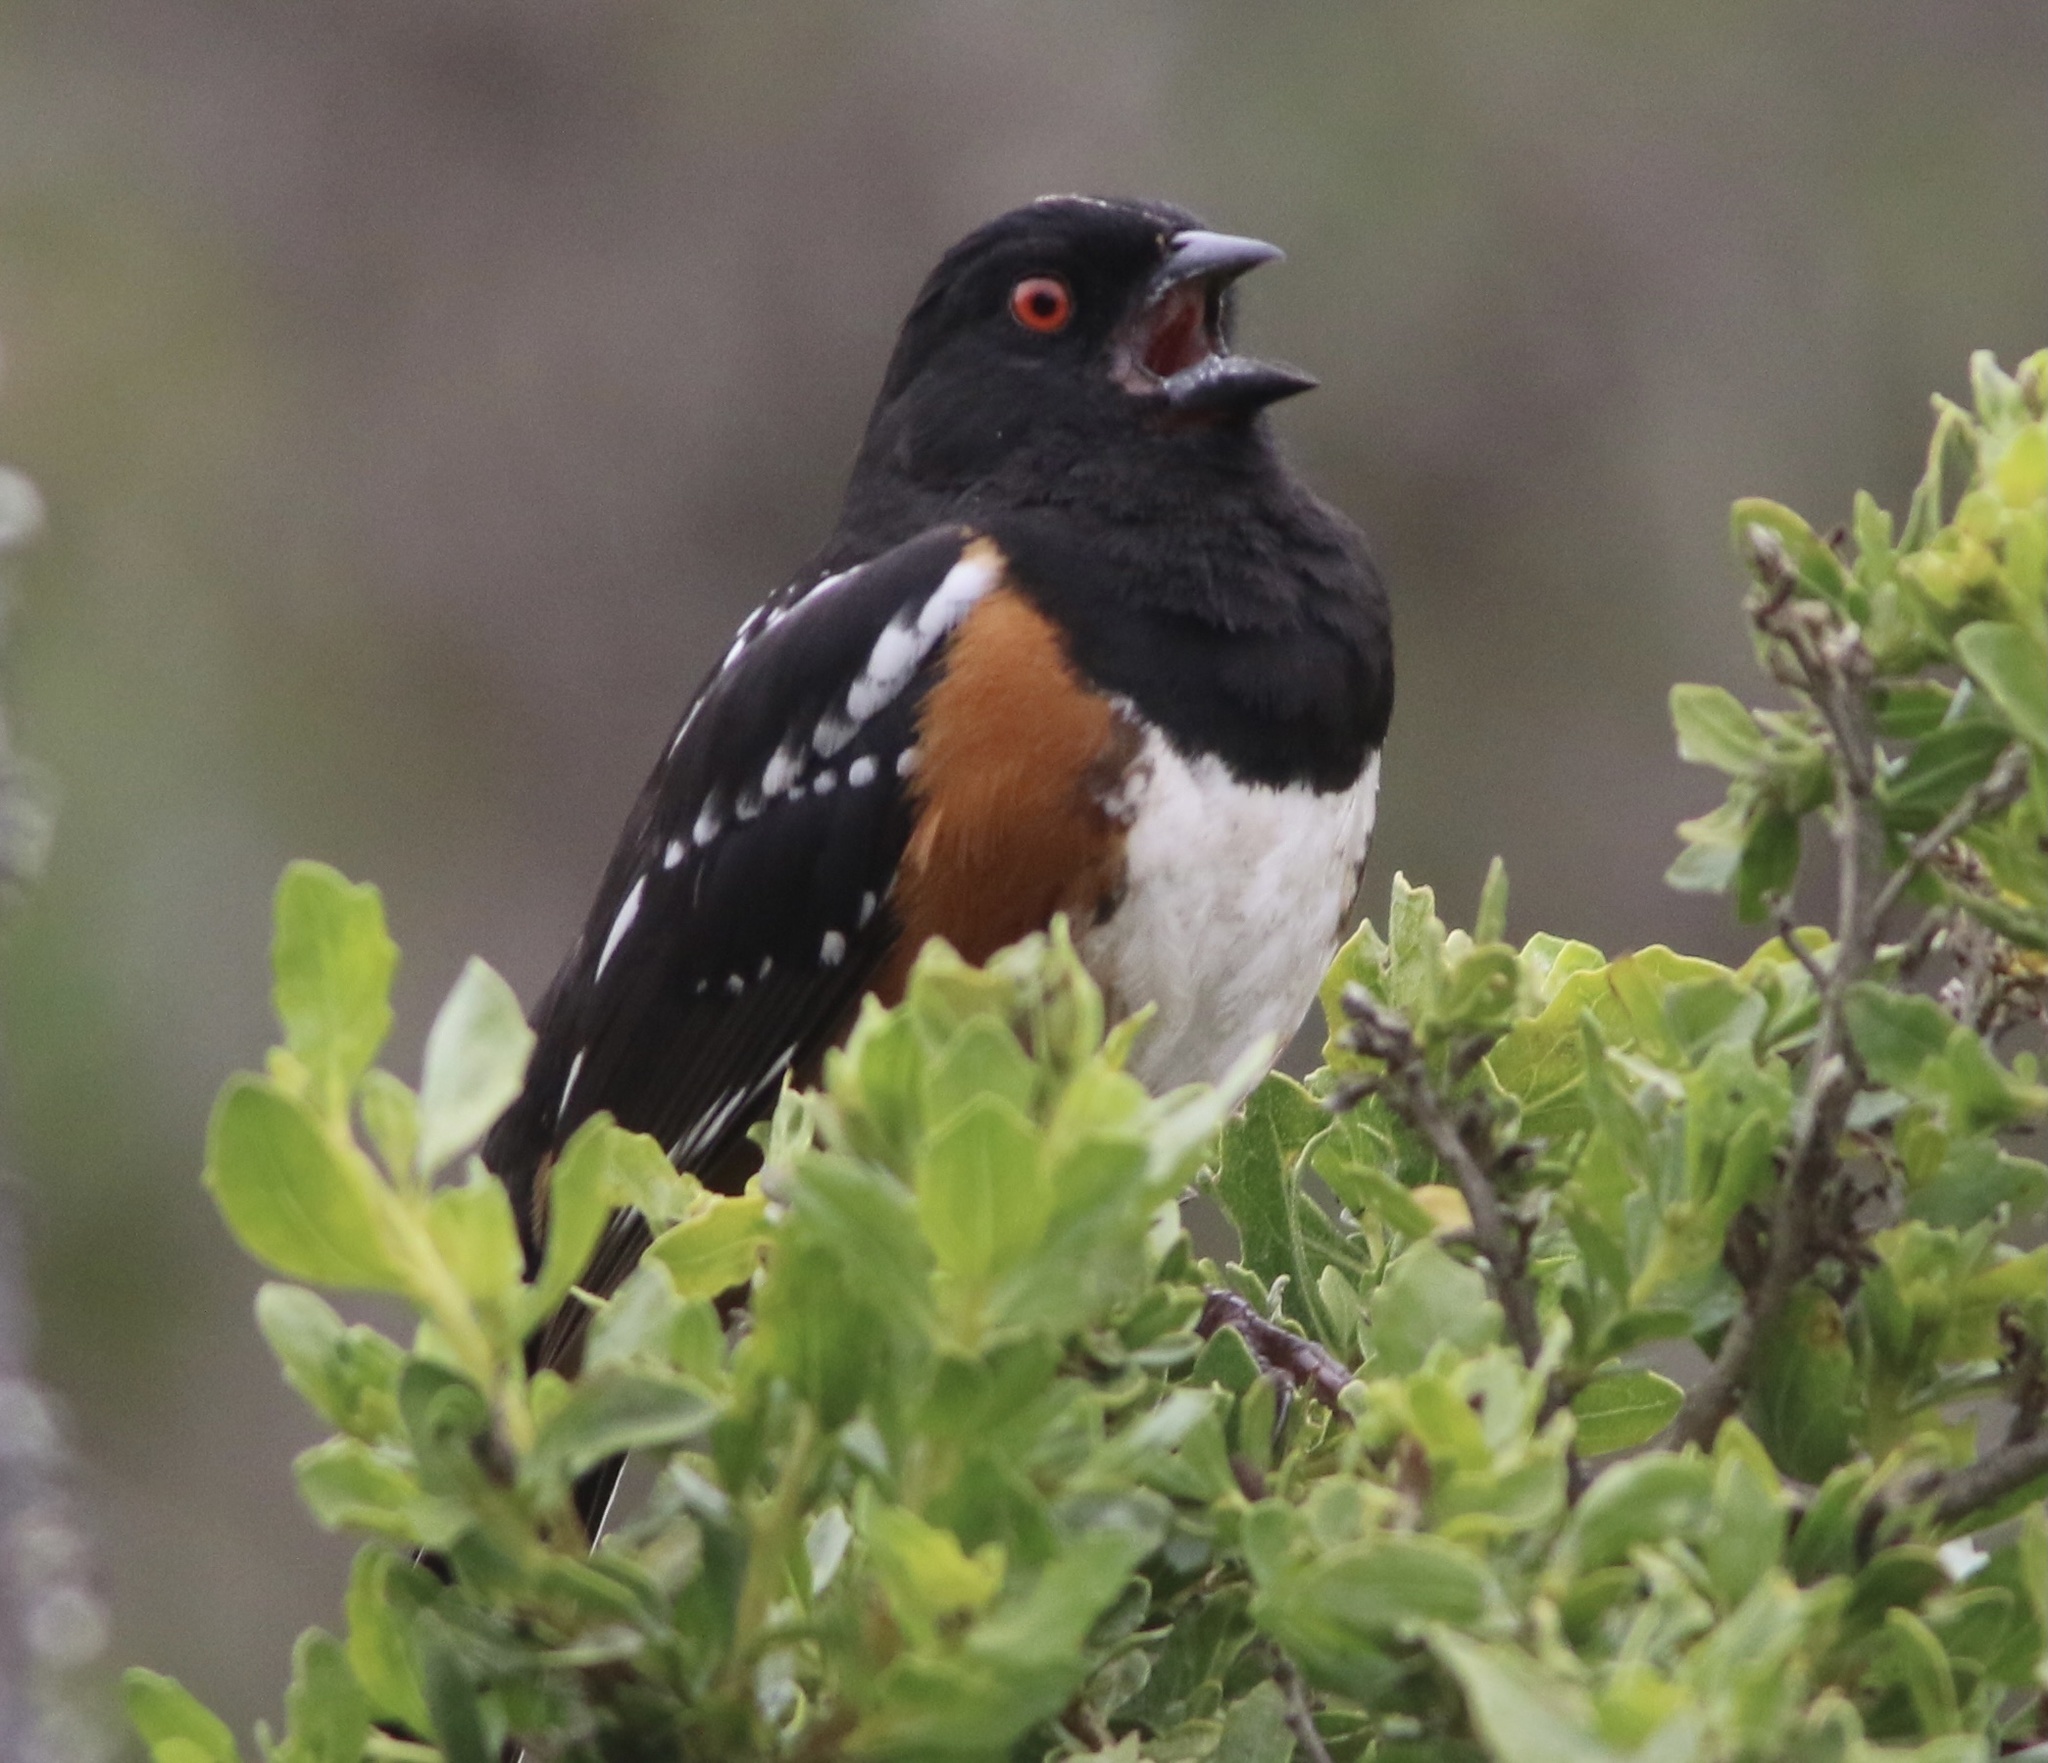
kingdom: Animalia
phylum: Chordata
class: Aves
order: Passeriformes
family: Passerellidae
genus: Pipilo
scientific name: Pipilo maculatus
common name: Spotted towhee
